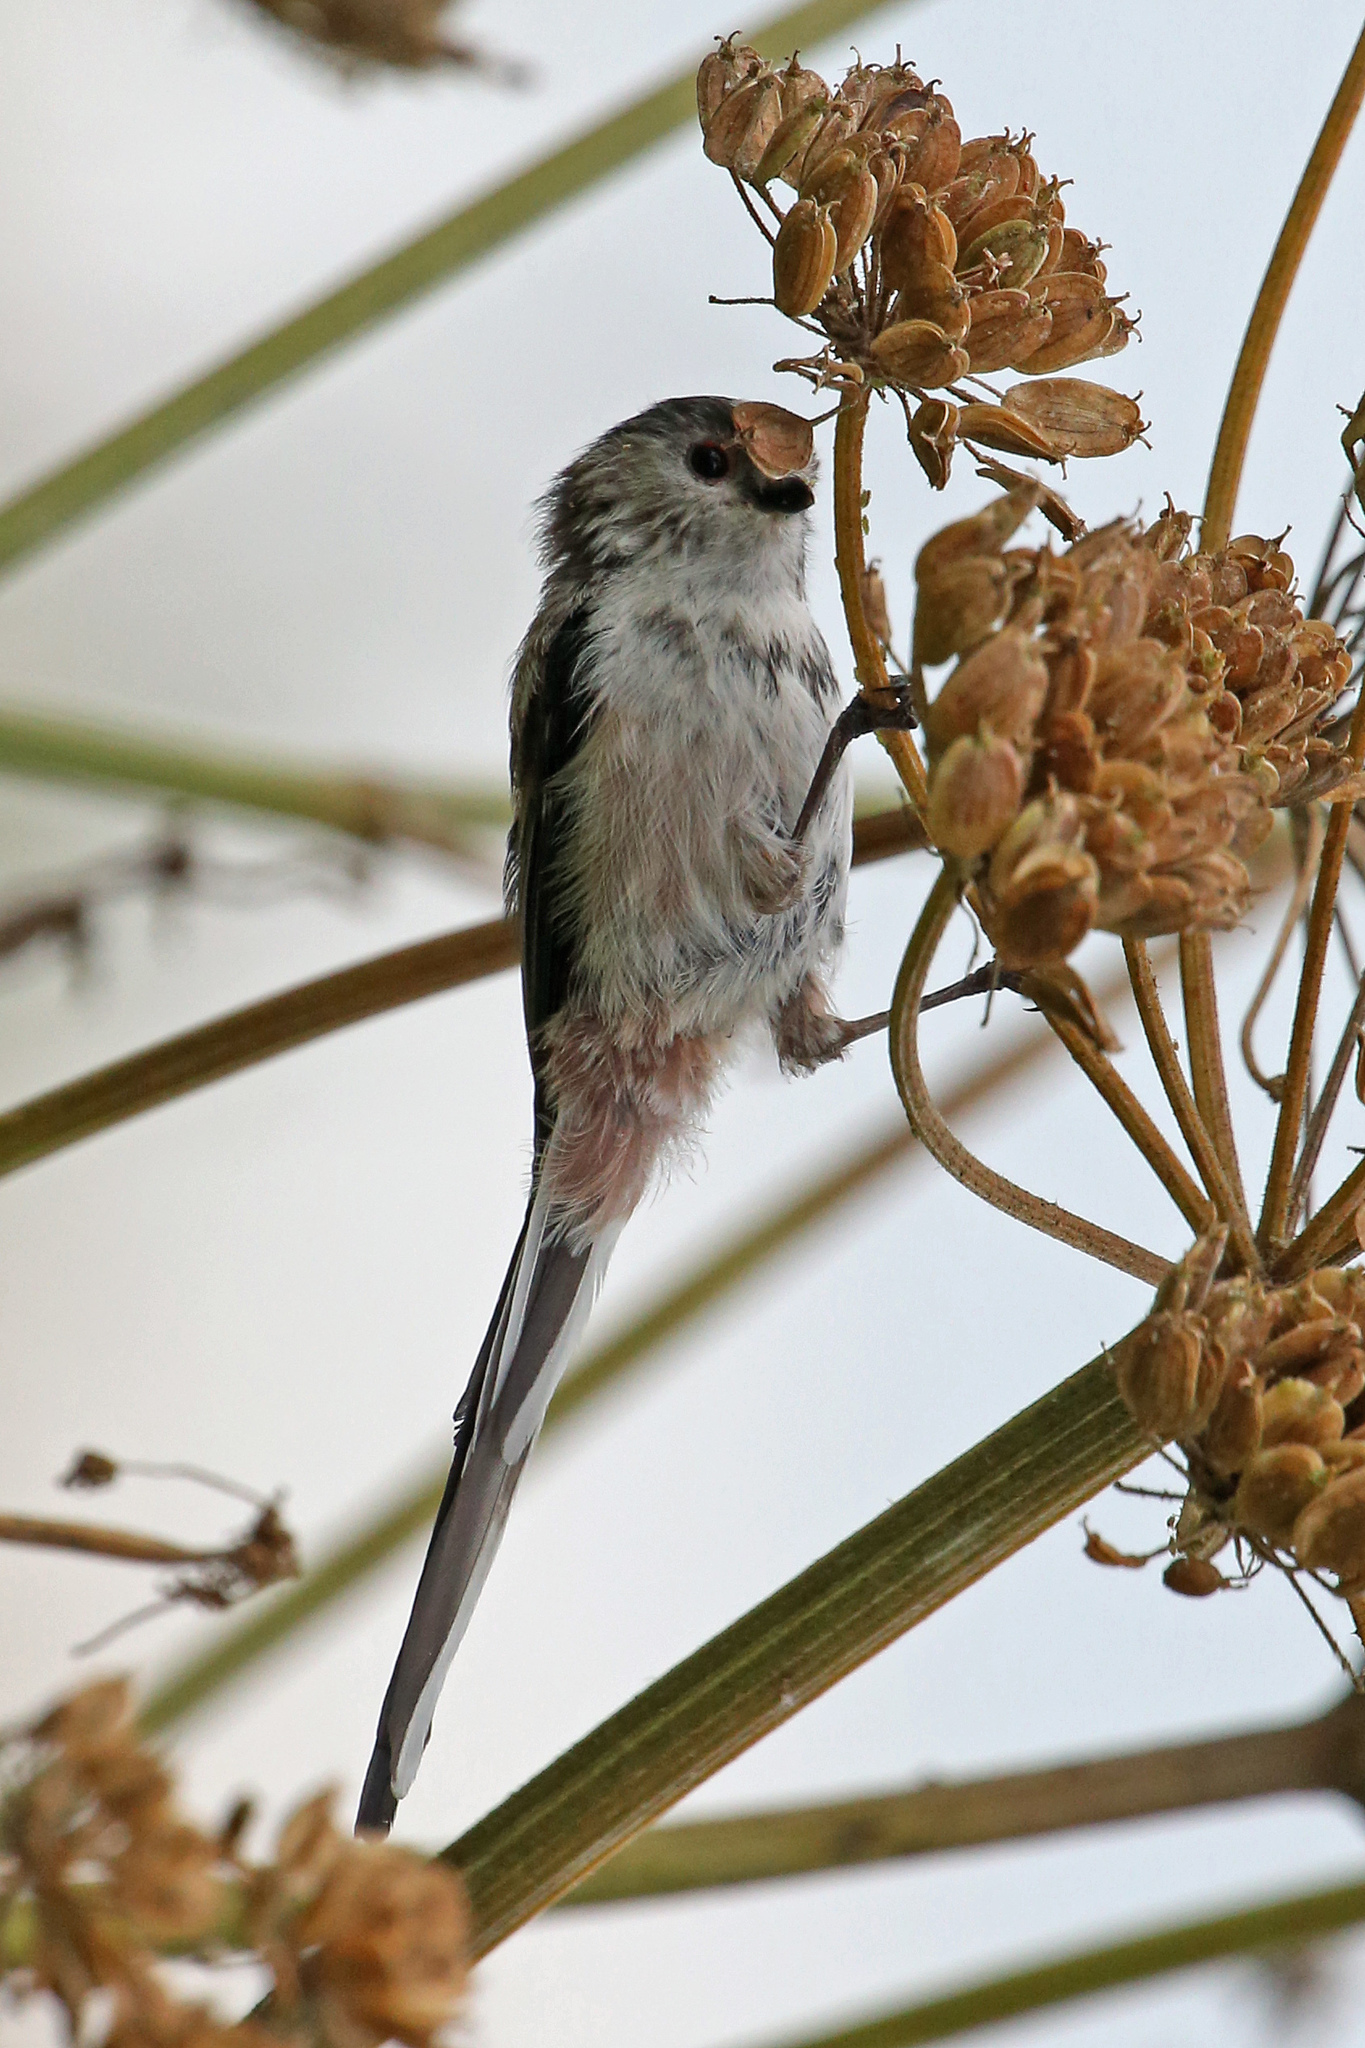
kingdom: Animalia
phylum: Chordata
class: Aves
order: Passeriformes
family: Aegithalidae
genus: Aegithalos
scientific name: Aegithalos caudatus
